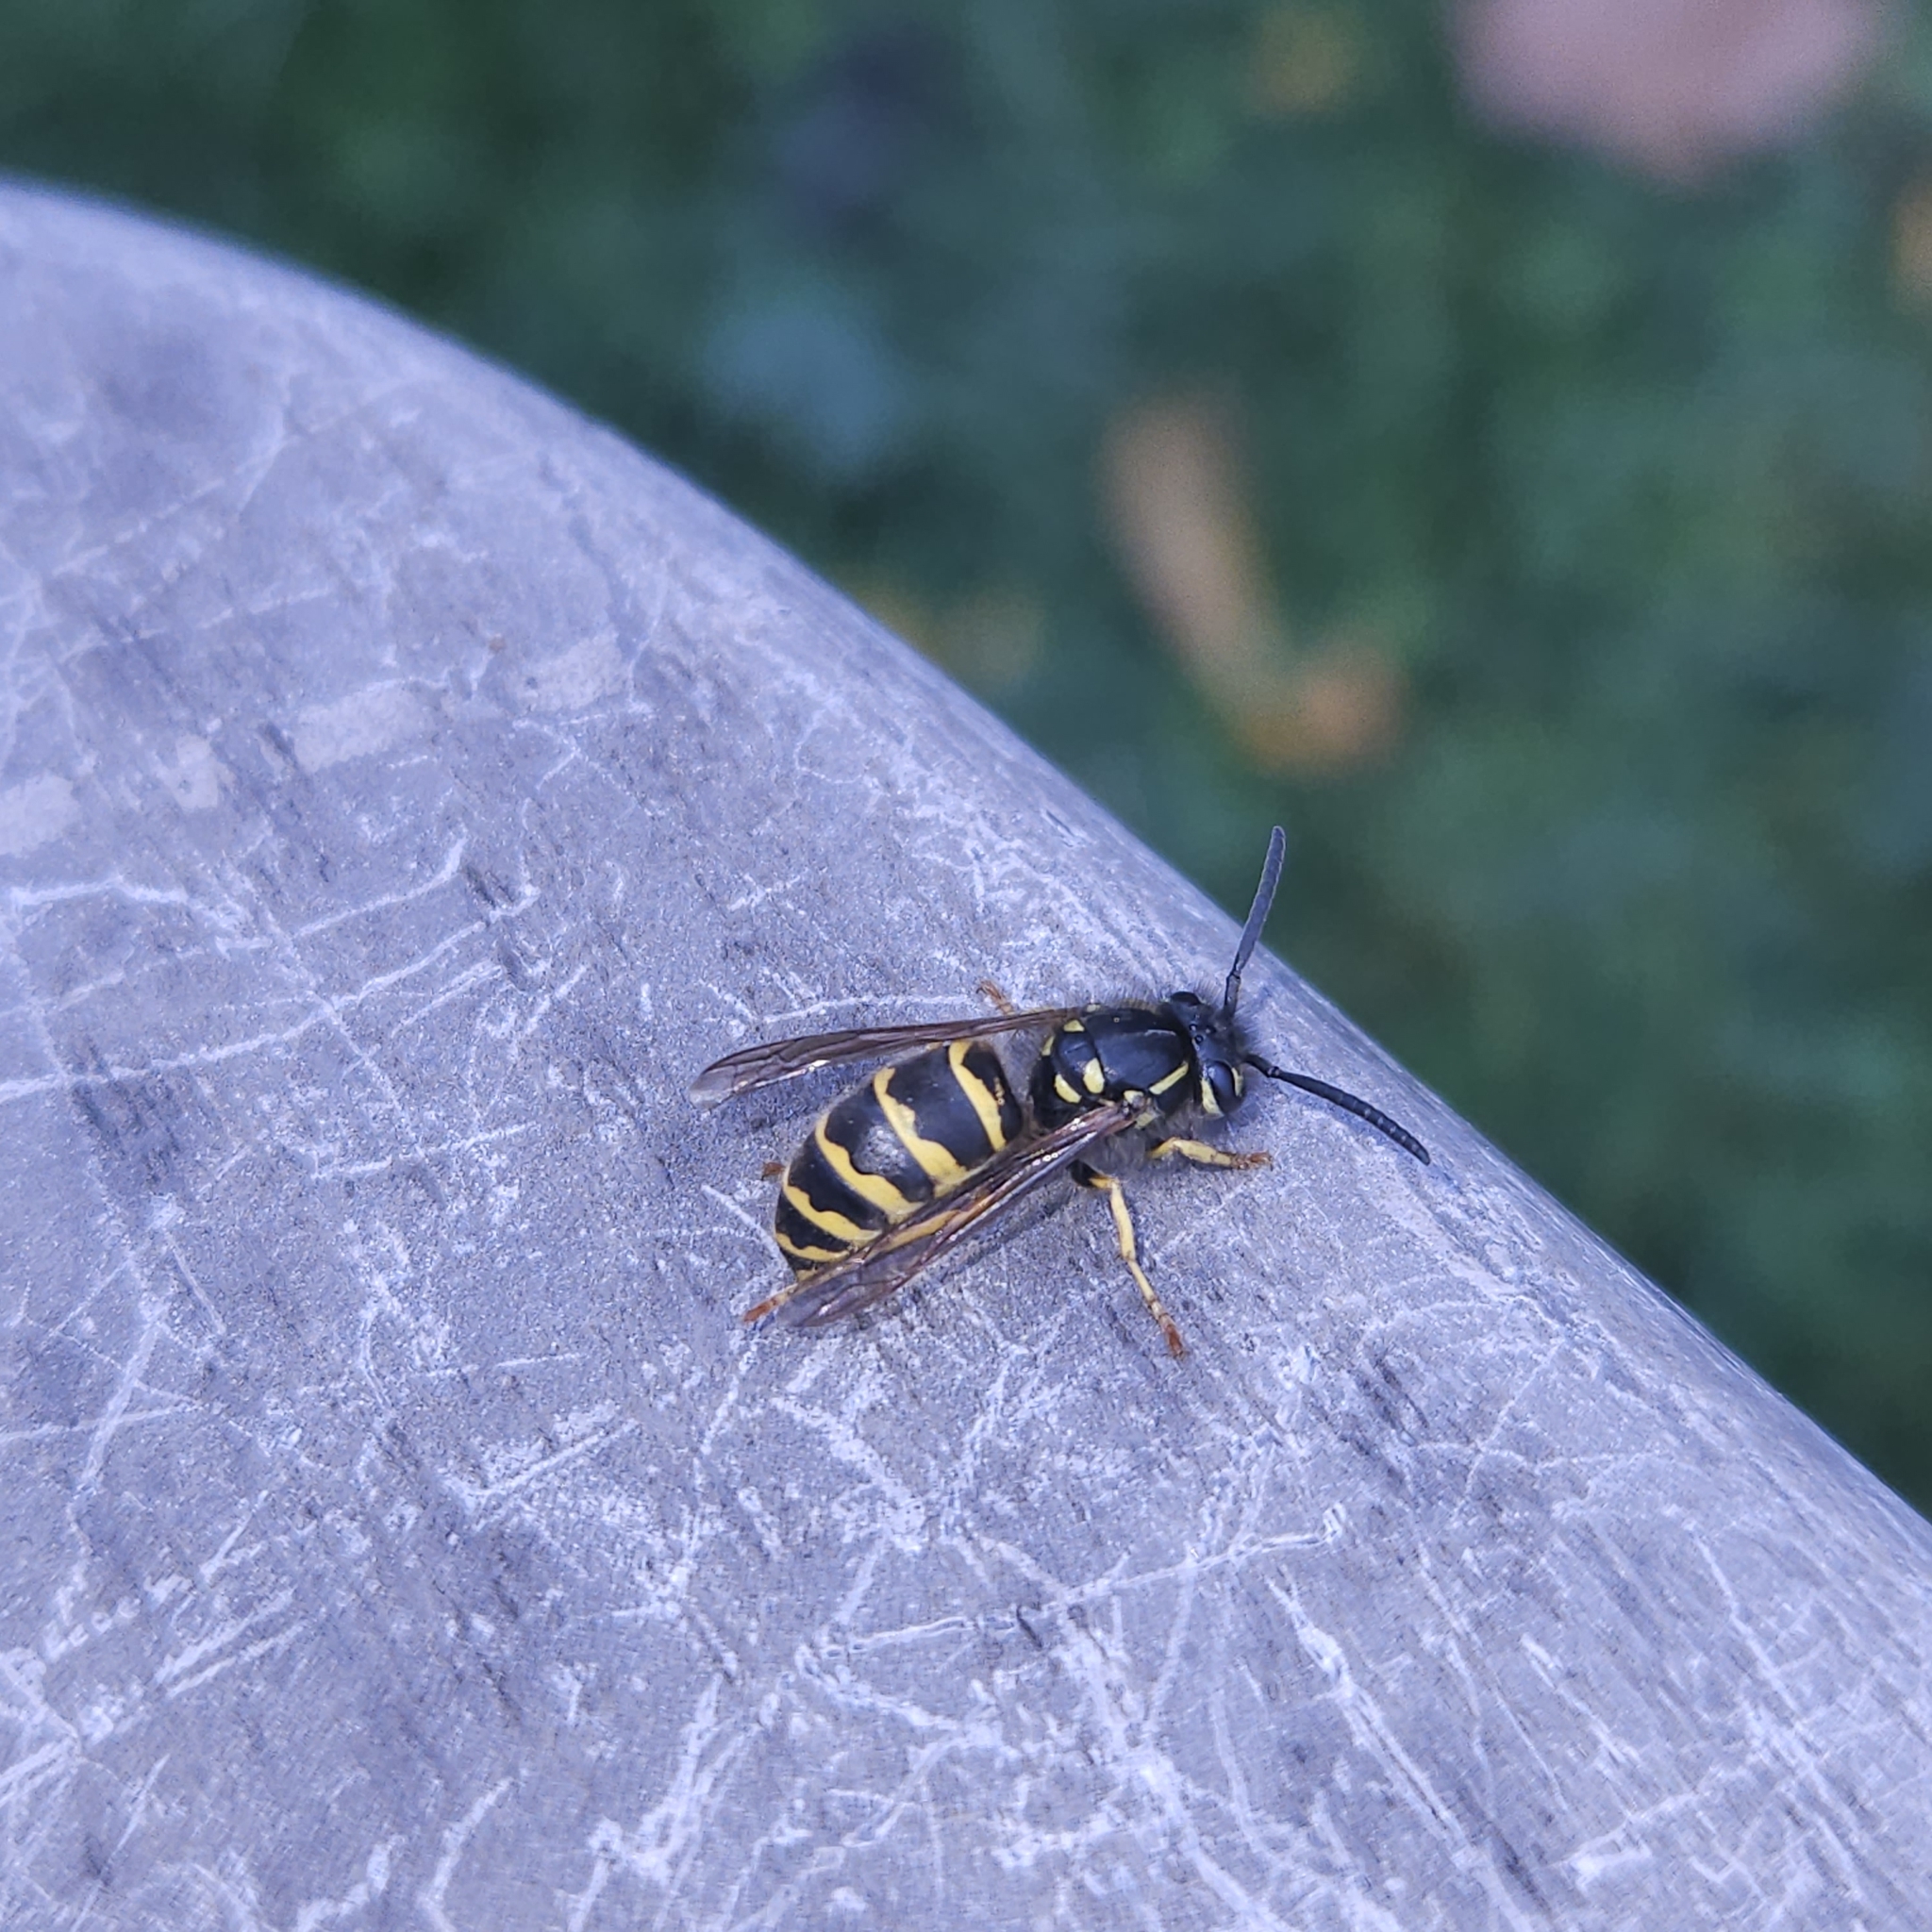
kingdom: Animalia
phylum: Arthropoda
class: Insecta
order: Hymenoptera
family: Vespidae
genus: Vespula
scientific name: Vespula alascensis
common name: Alaska yellowjacket
